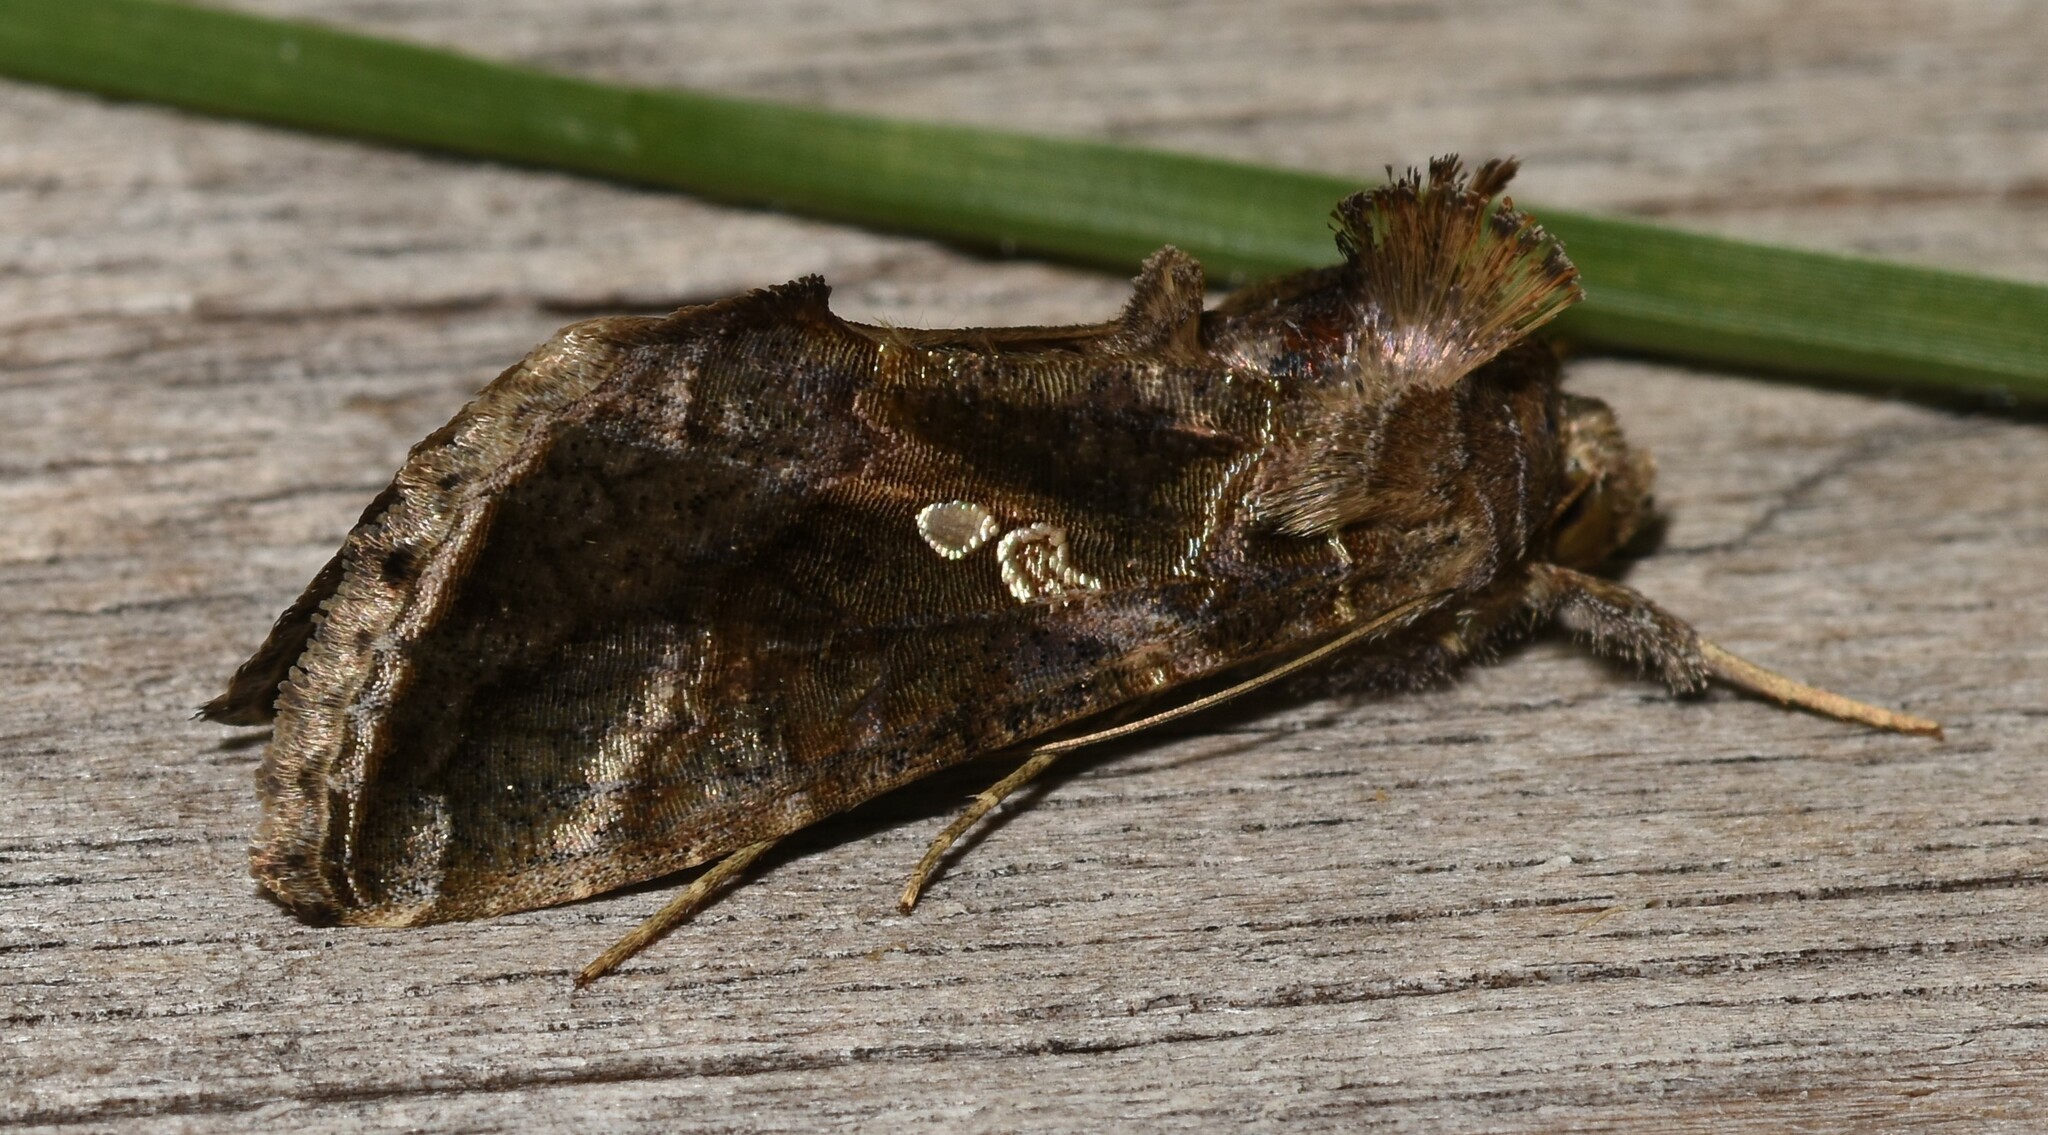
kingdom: Animalia
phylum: Arthropoda
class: Insecta
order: Lepidoptera
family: Noctuidae
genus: Chrysodeixis
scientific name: Chrysodeixis includens
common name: Cutworm moth
